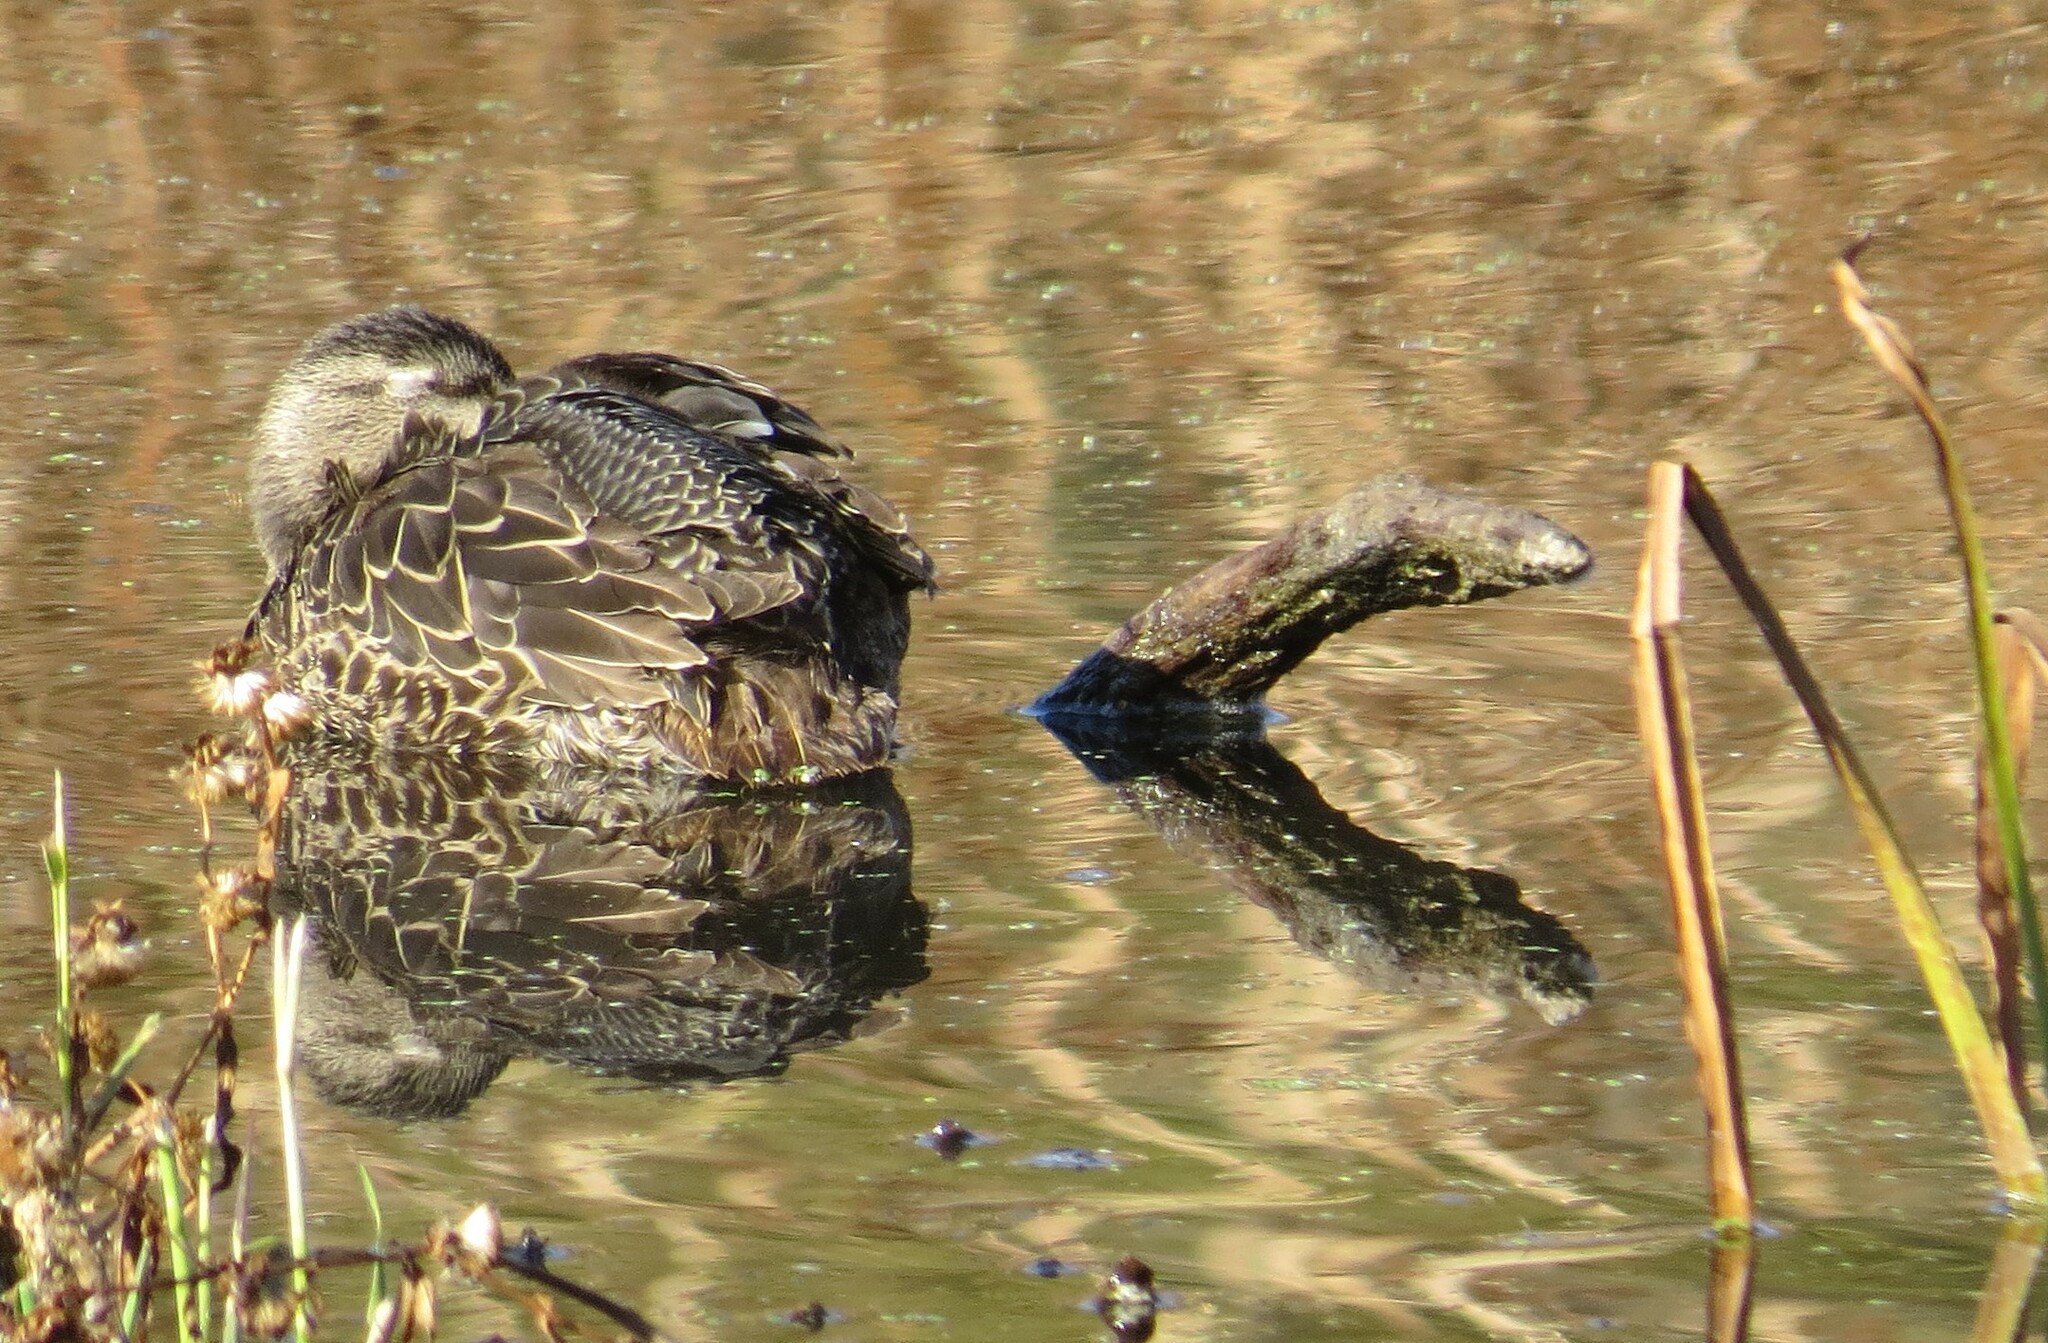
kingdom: Animalia
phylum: Chordata
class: Aves
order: Anseriformes
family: Anatidae
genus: Spatula
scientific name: Spatula discors
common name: Blue-winged teal
